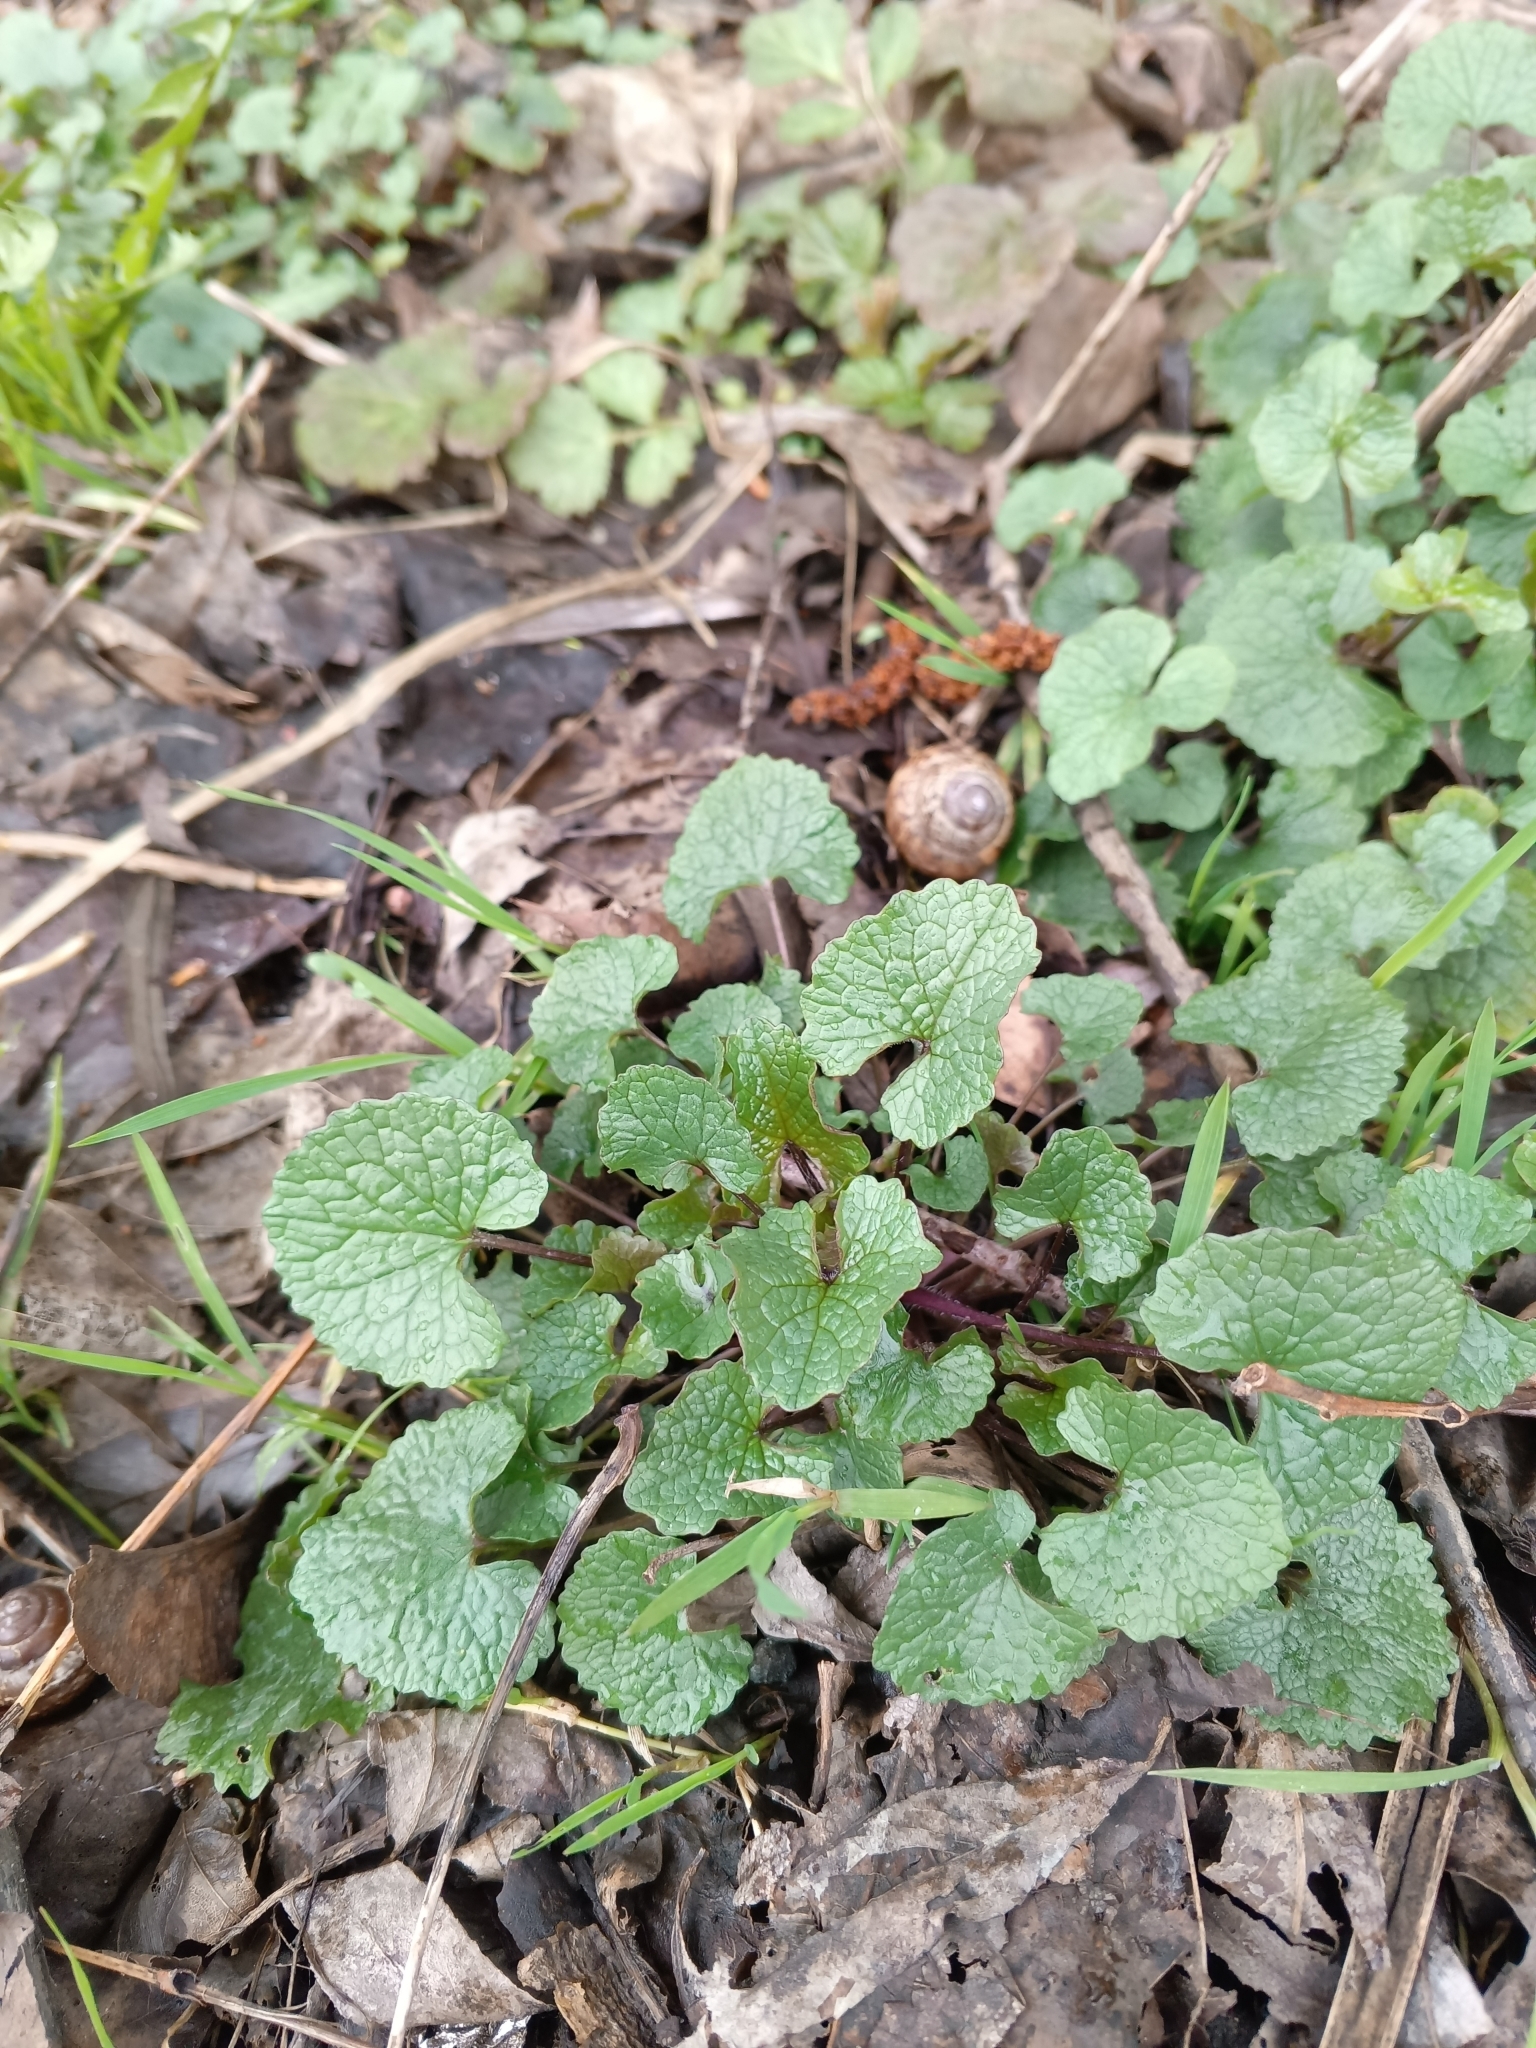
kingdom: Plantae
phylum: Tracheophyta
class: Magnoliopsida
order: Brassicales
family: Brassicaceae
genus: Alliaria
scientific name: Alliaria petiolata
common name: Garlic mustard
